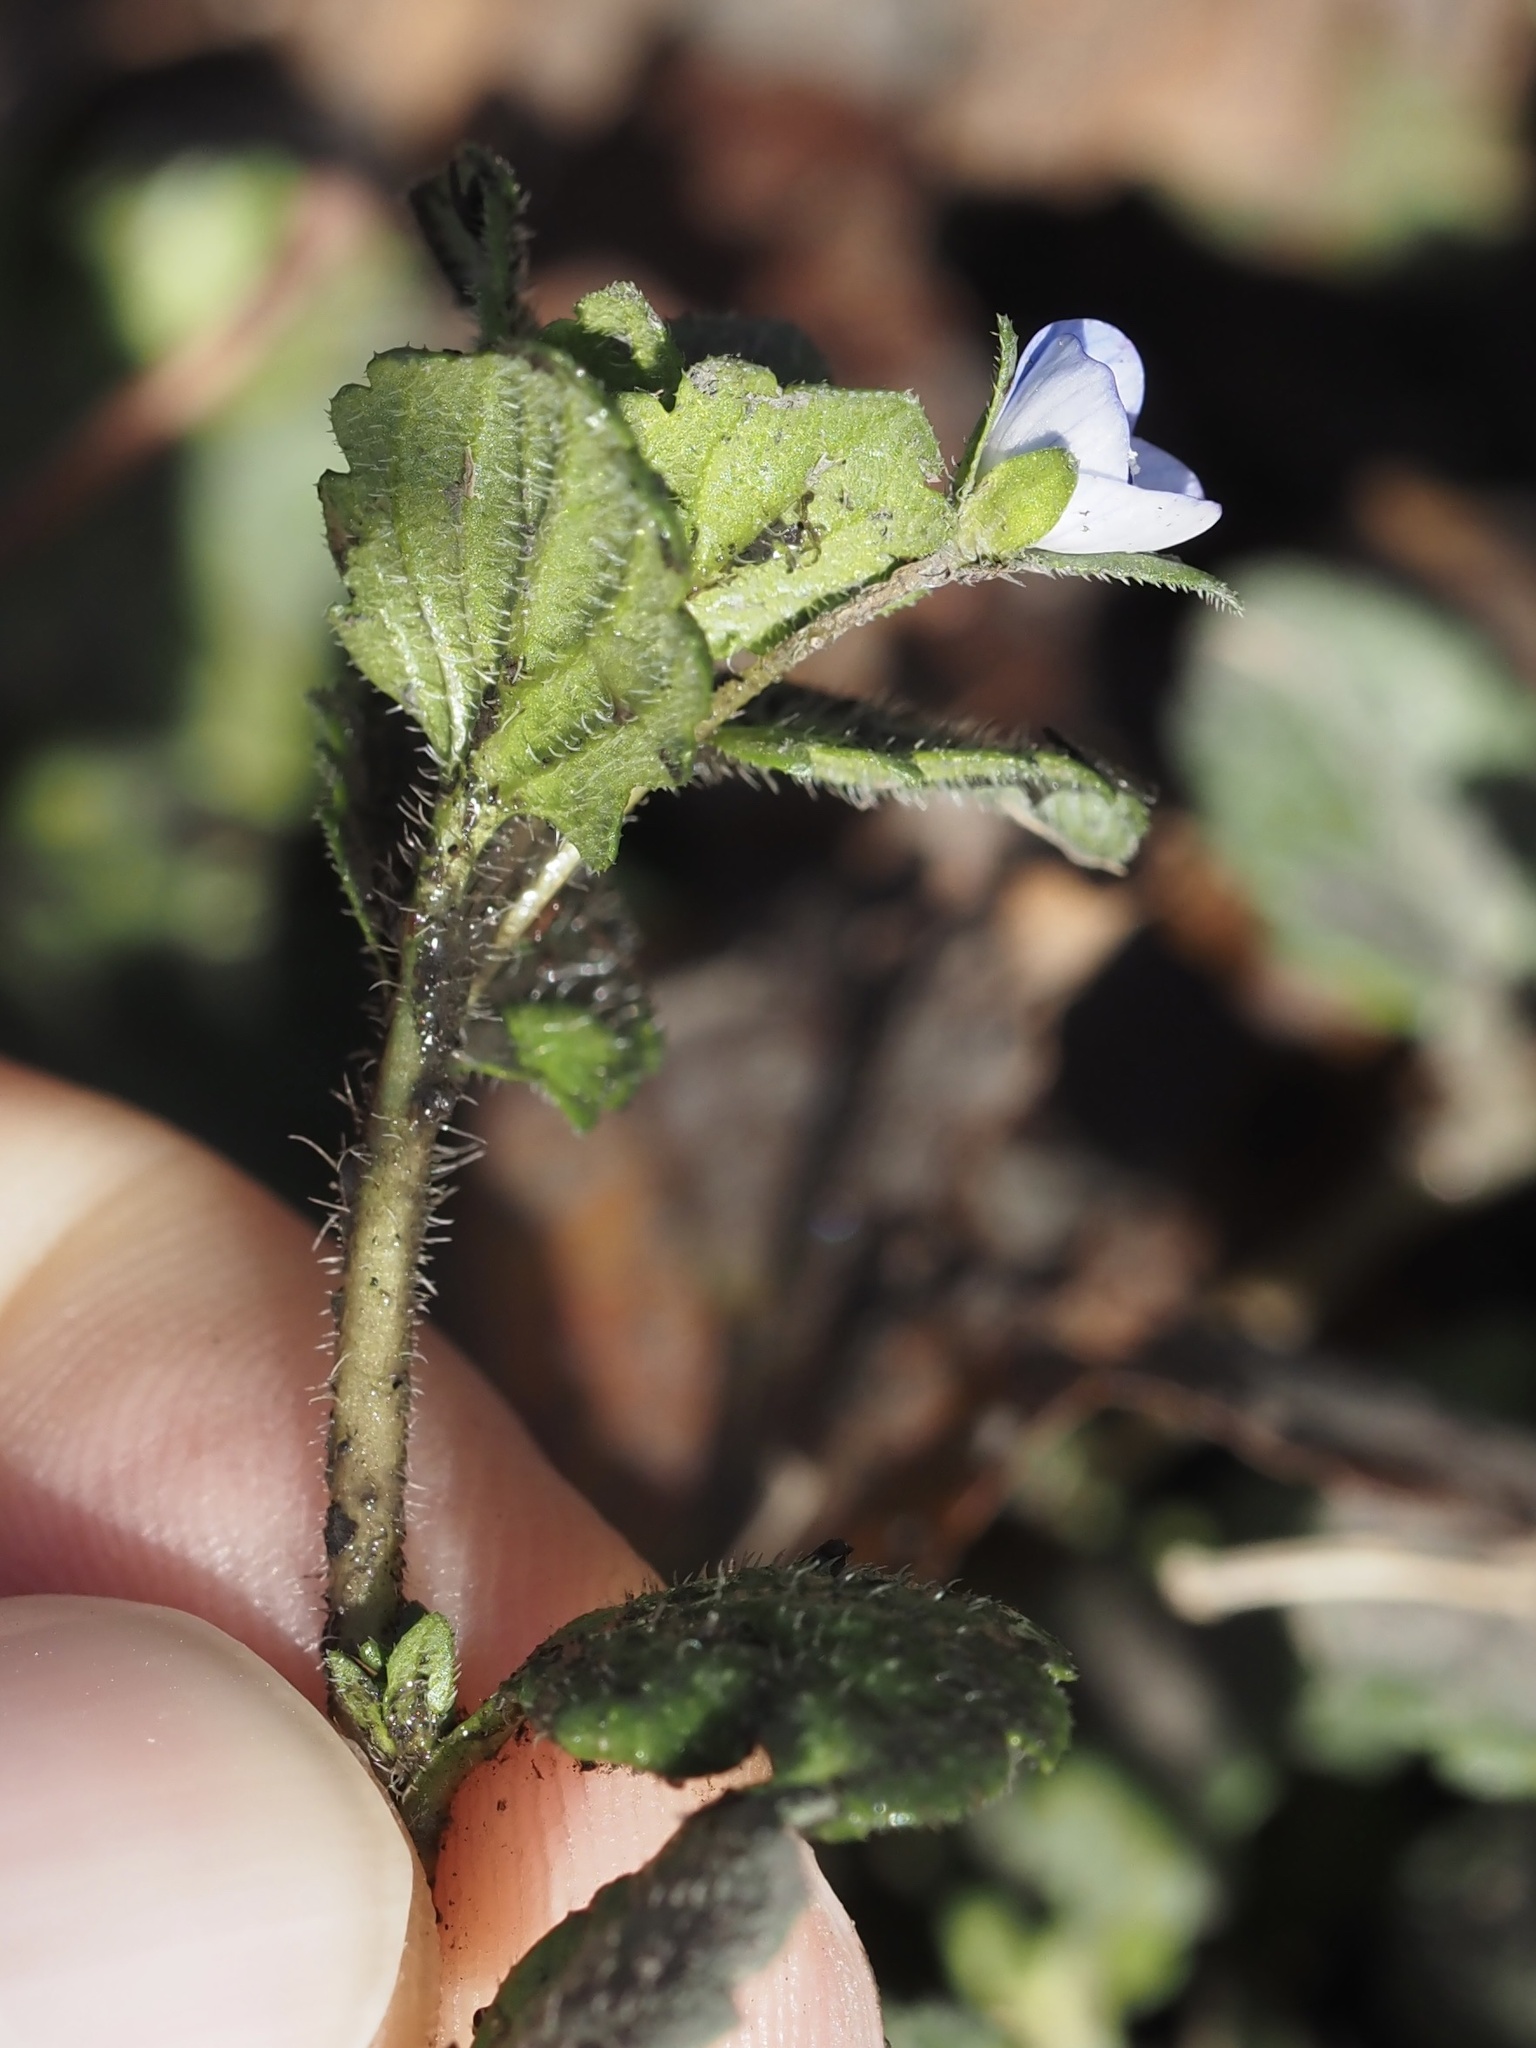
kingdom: Plantae
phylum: Tracheophyta
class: Magnoliopsida
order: Lamiales
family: Plantaginaceae
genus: Veronica
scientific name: Veronica persica
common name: Common field-speedwell
